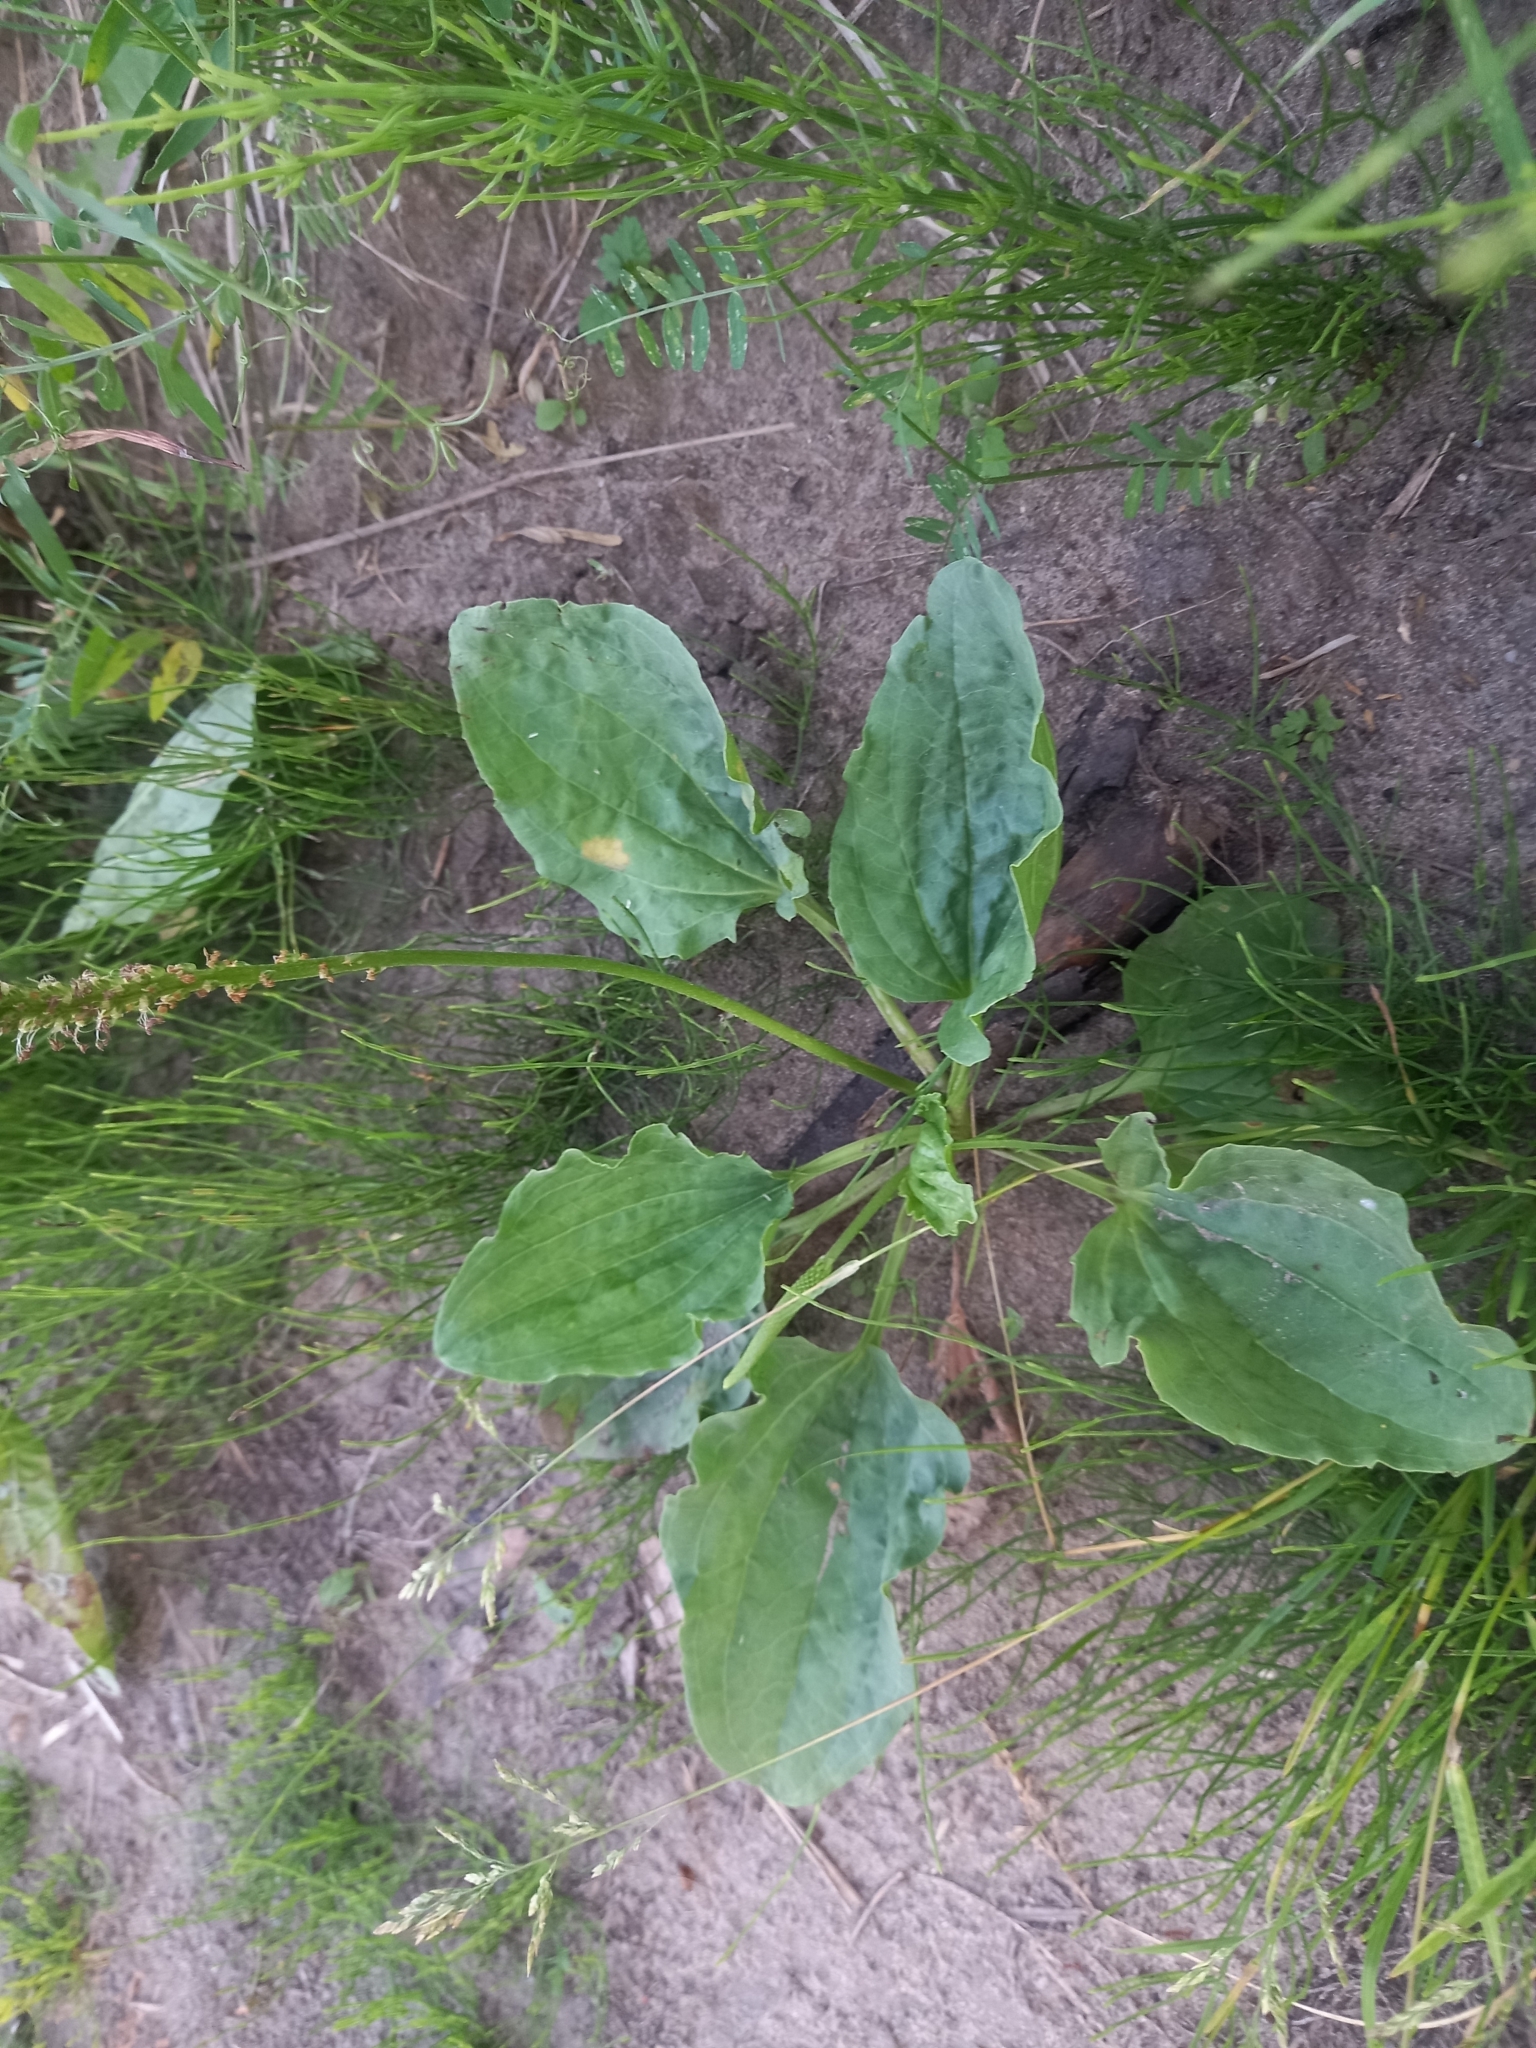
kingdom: Plantae
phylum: Tracheophyta
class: Magnoliopsida
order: Lamiales
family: Plantaginaceae
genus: Plantago
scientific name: Plantago major
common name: Common plantain
